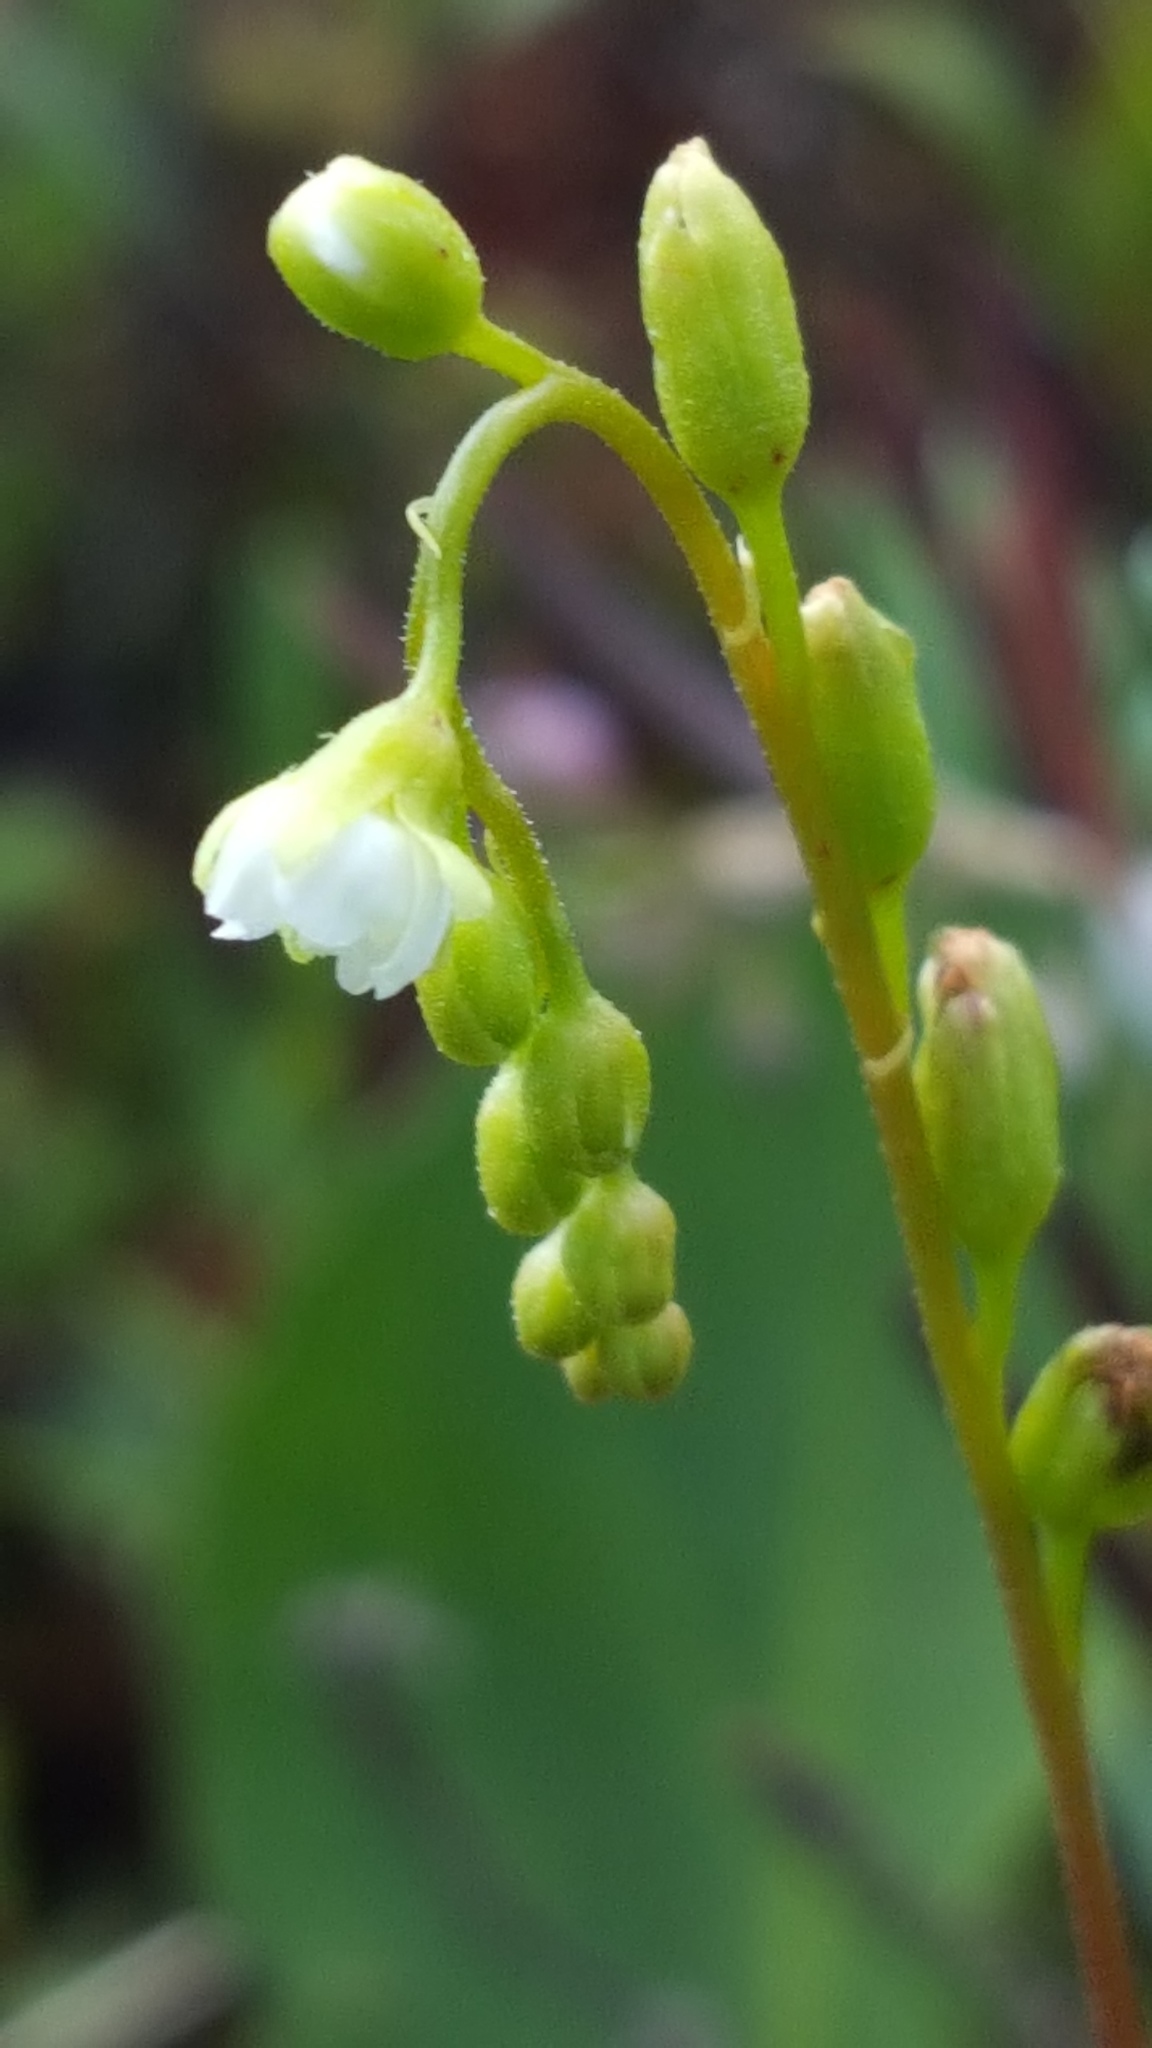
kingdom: Plantae
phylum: Tracheophyta
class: Magnoliopsida
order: Caryophyllales
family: Droseraceae
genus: Drosera
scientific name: Drosera rotundifolia
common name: Round-leaved sundew
